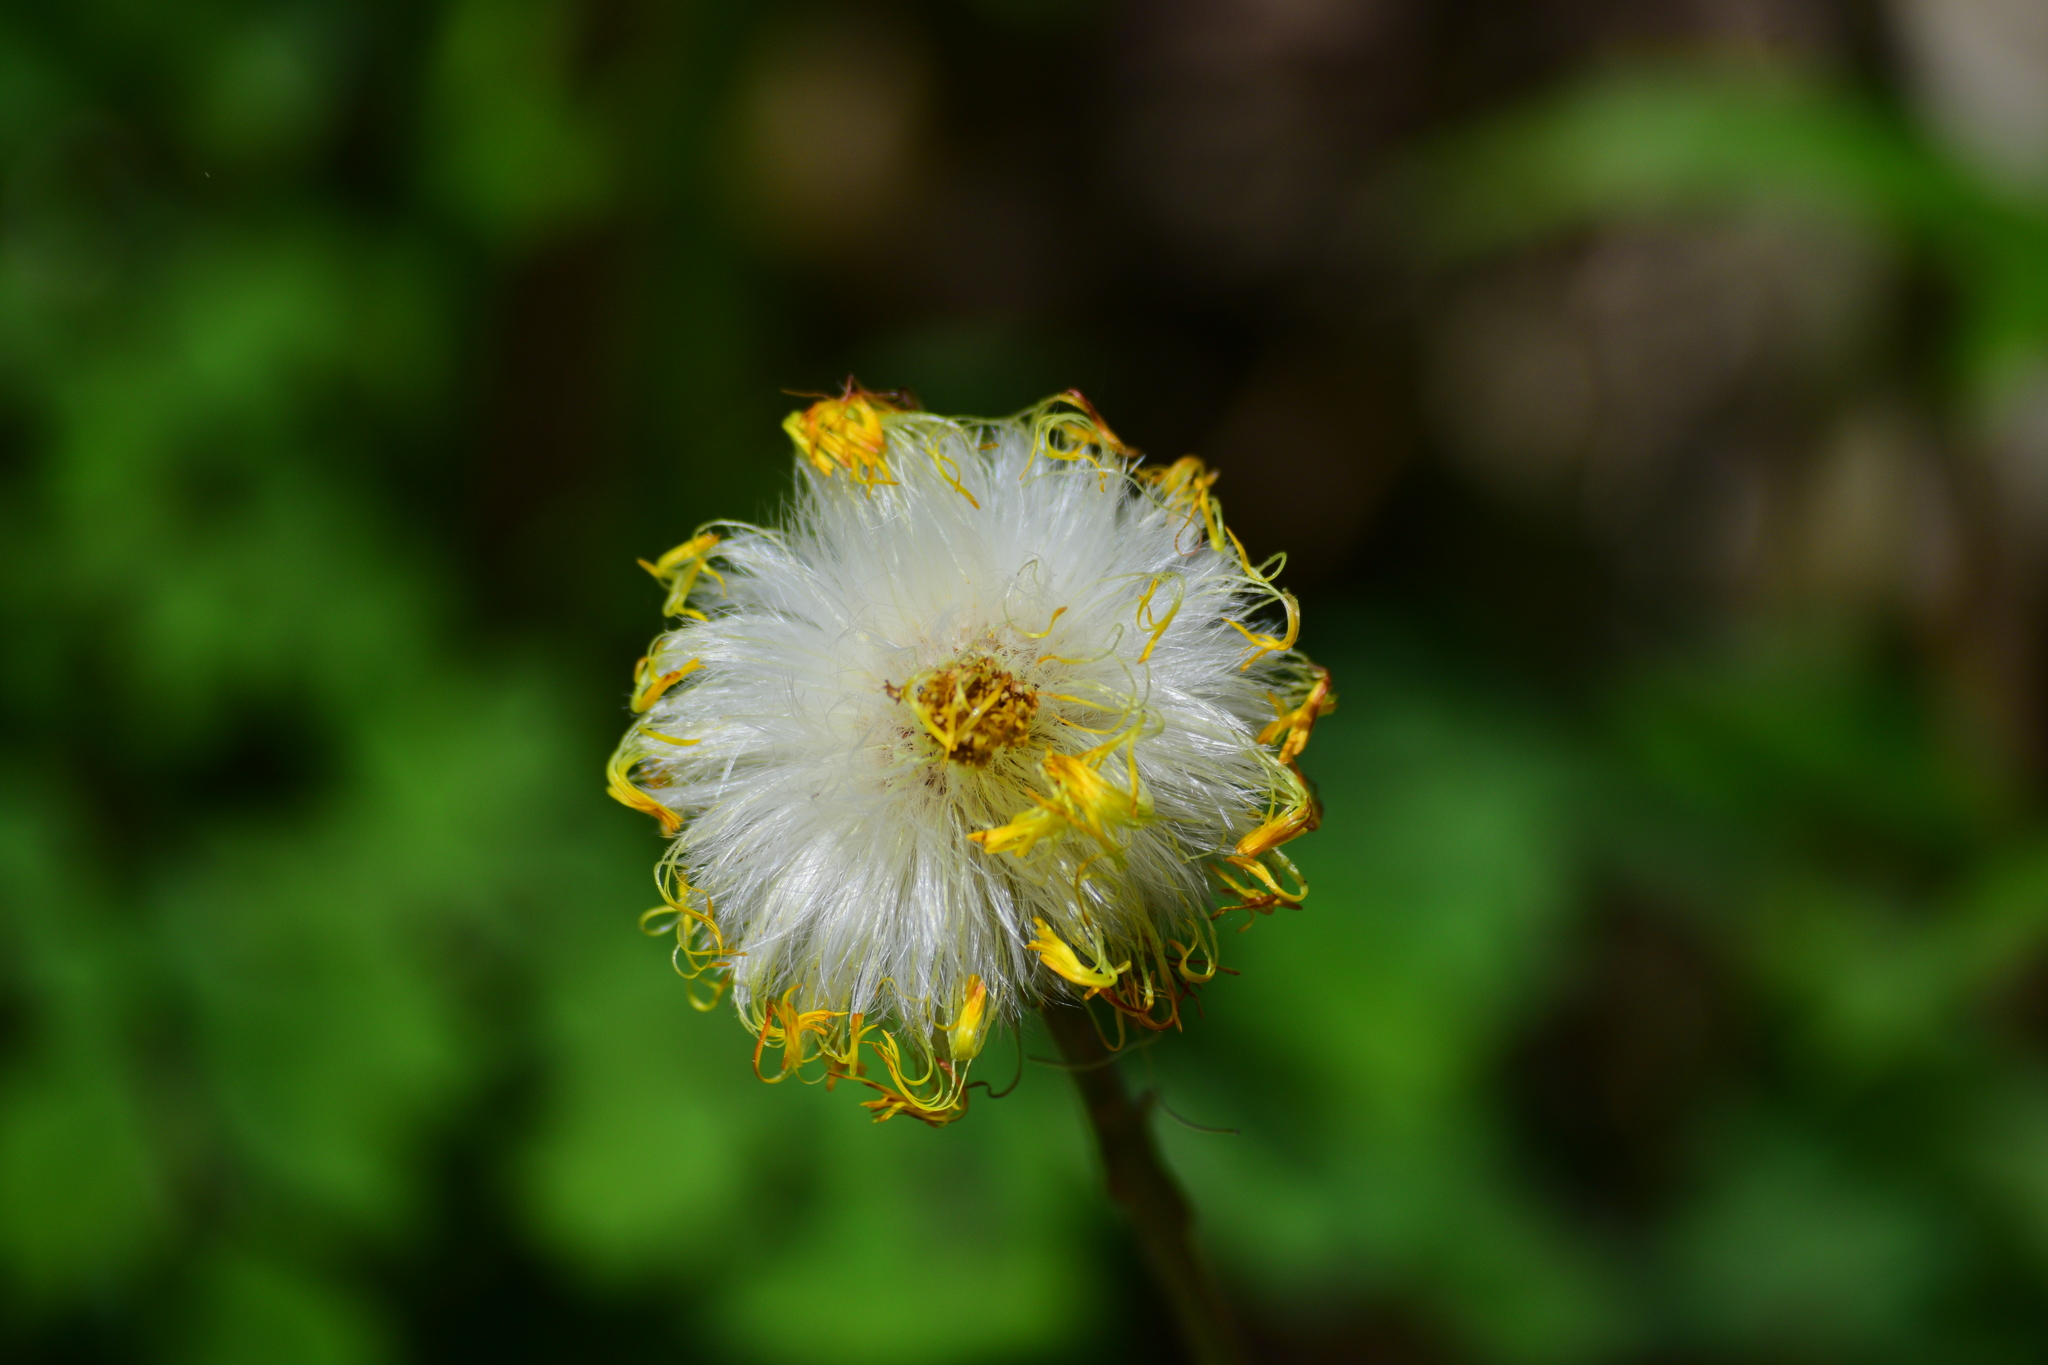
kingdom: Plantae
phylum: Tracheophyta
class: Magnoliopsida
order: Asterales
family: Asteraceae
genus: Tussilago
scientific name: Tussilago farfara
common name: Coltsfoot
